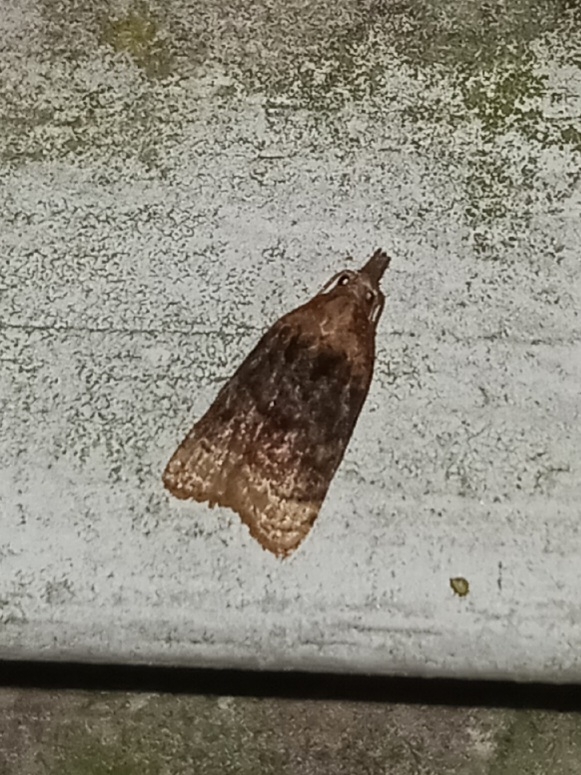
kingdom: Animalia
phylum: Arthropoda
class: Insecta
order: Lepidoptera
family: Tortricidae
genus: Platynota
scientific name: Platynota flavedana
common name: Black-shaded platynota moth
